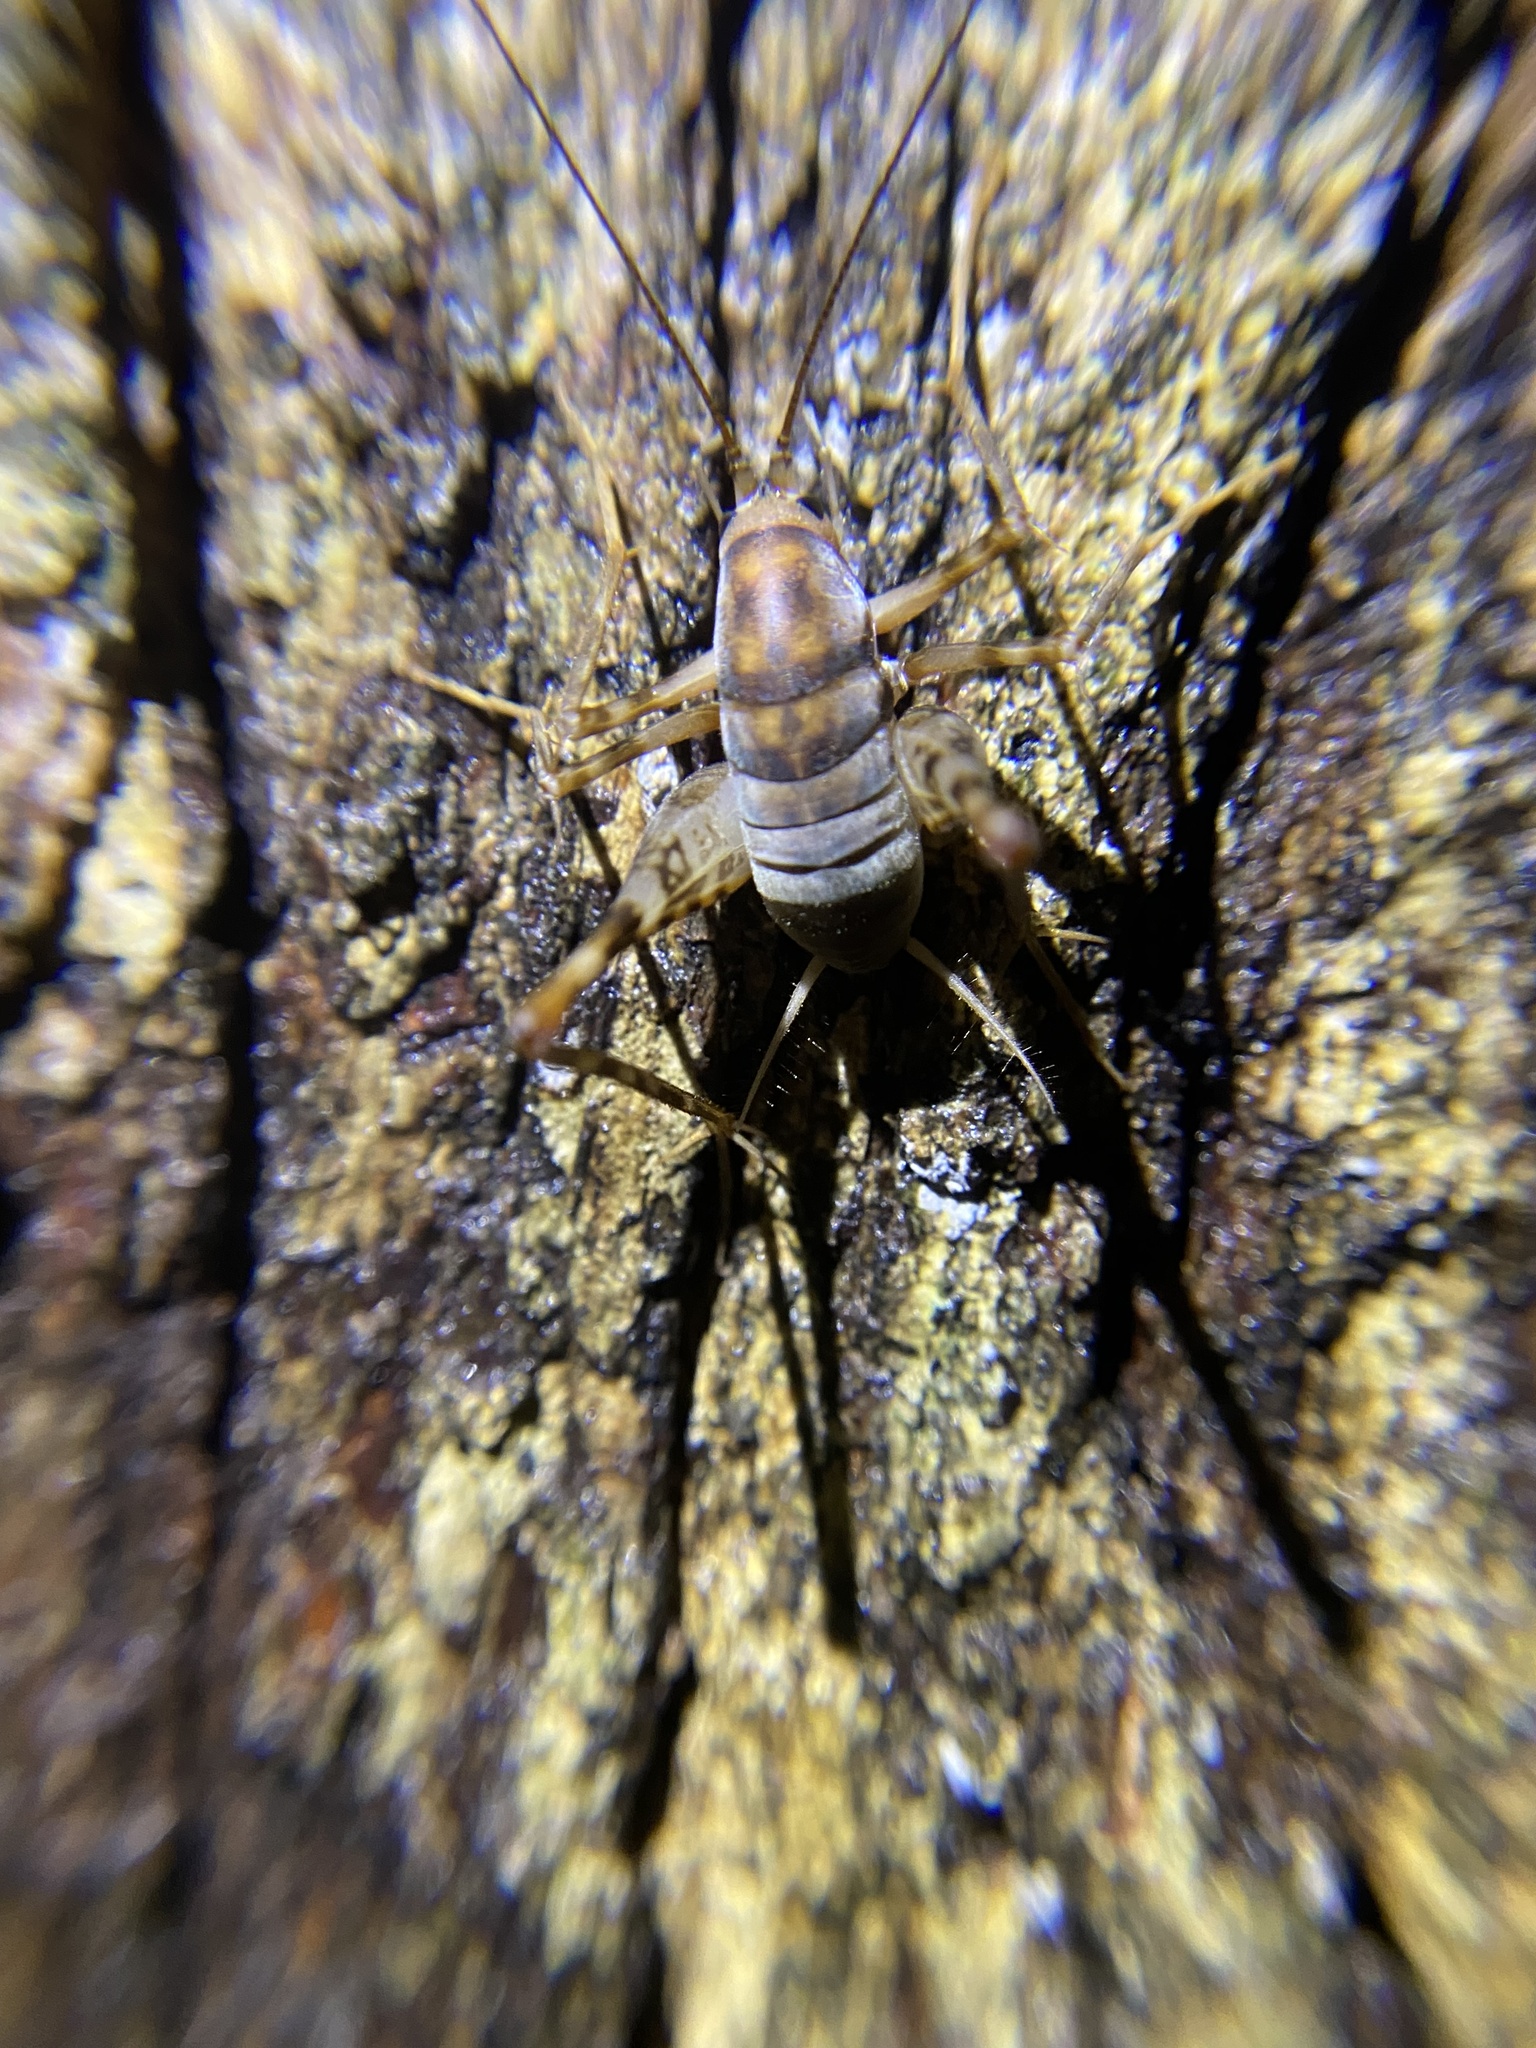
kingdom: Animalia
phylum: Arthropoda
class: Insecta
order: Orthoptera
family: Rhaphidophoridae
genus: Tachycines
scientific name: Tachycines asynamorus
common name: Greenhouse camel cricket
